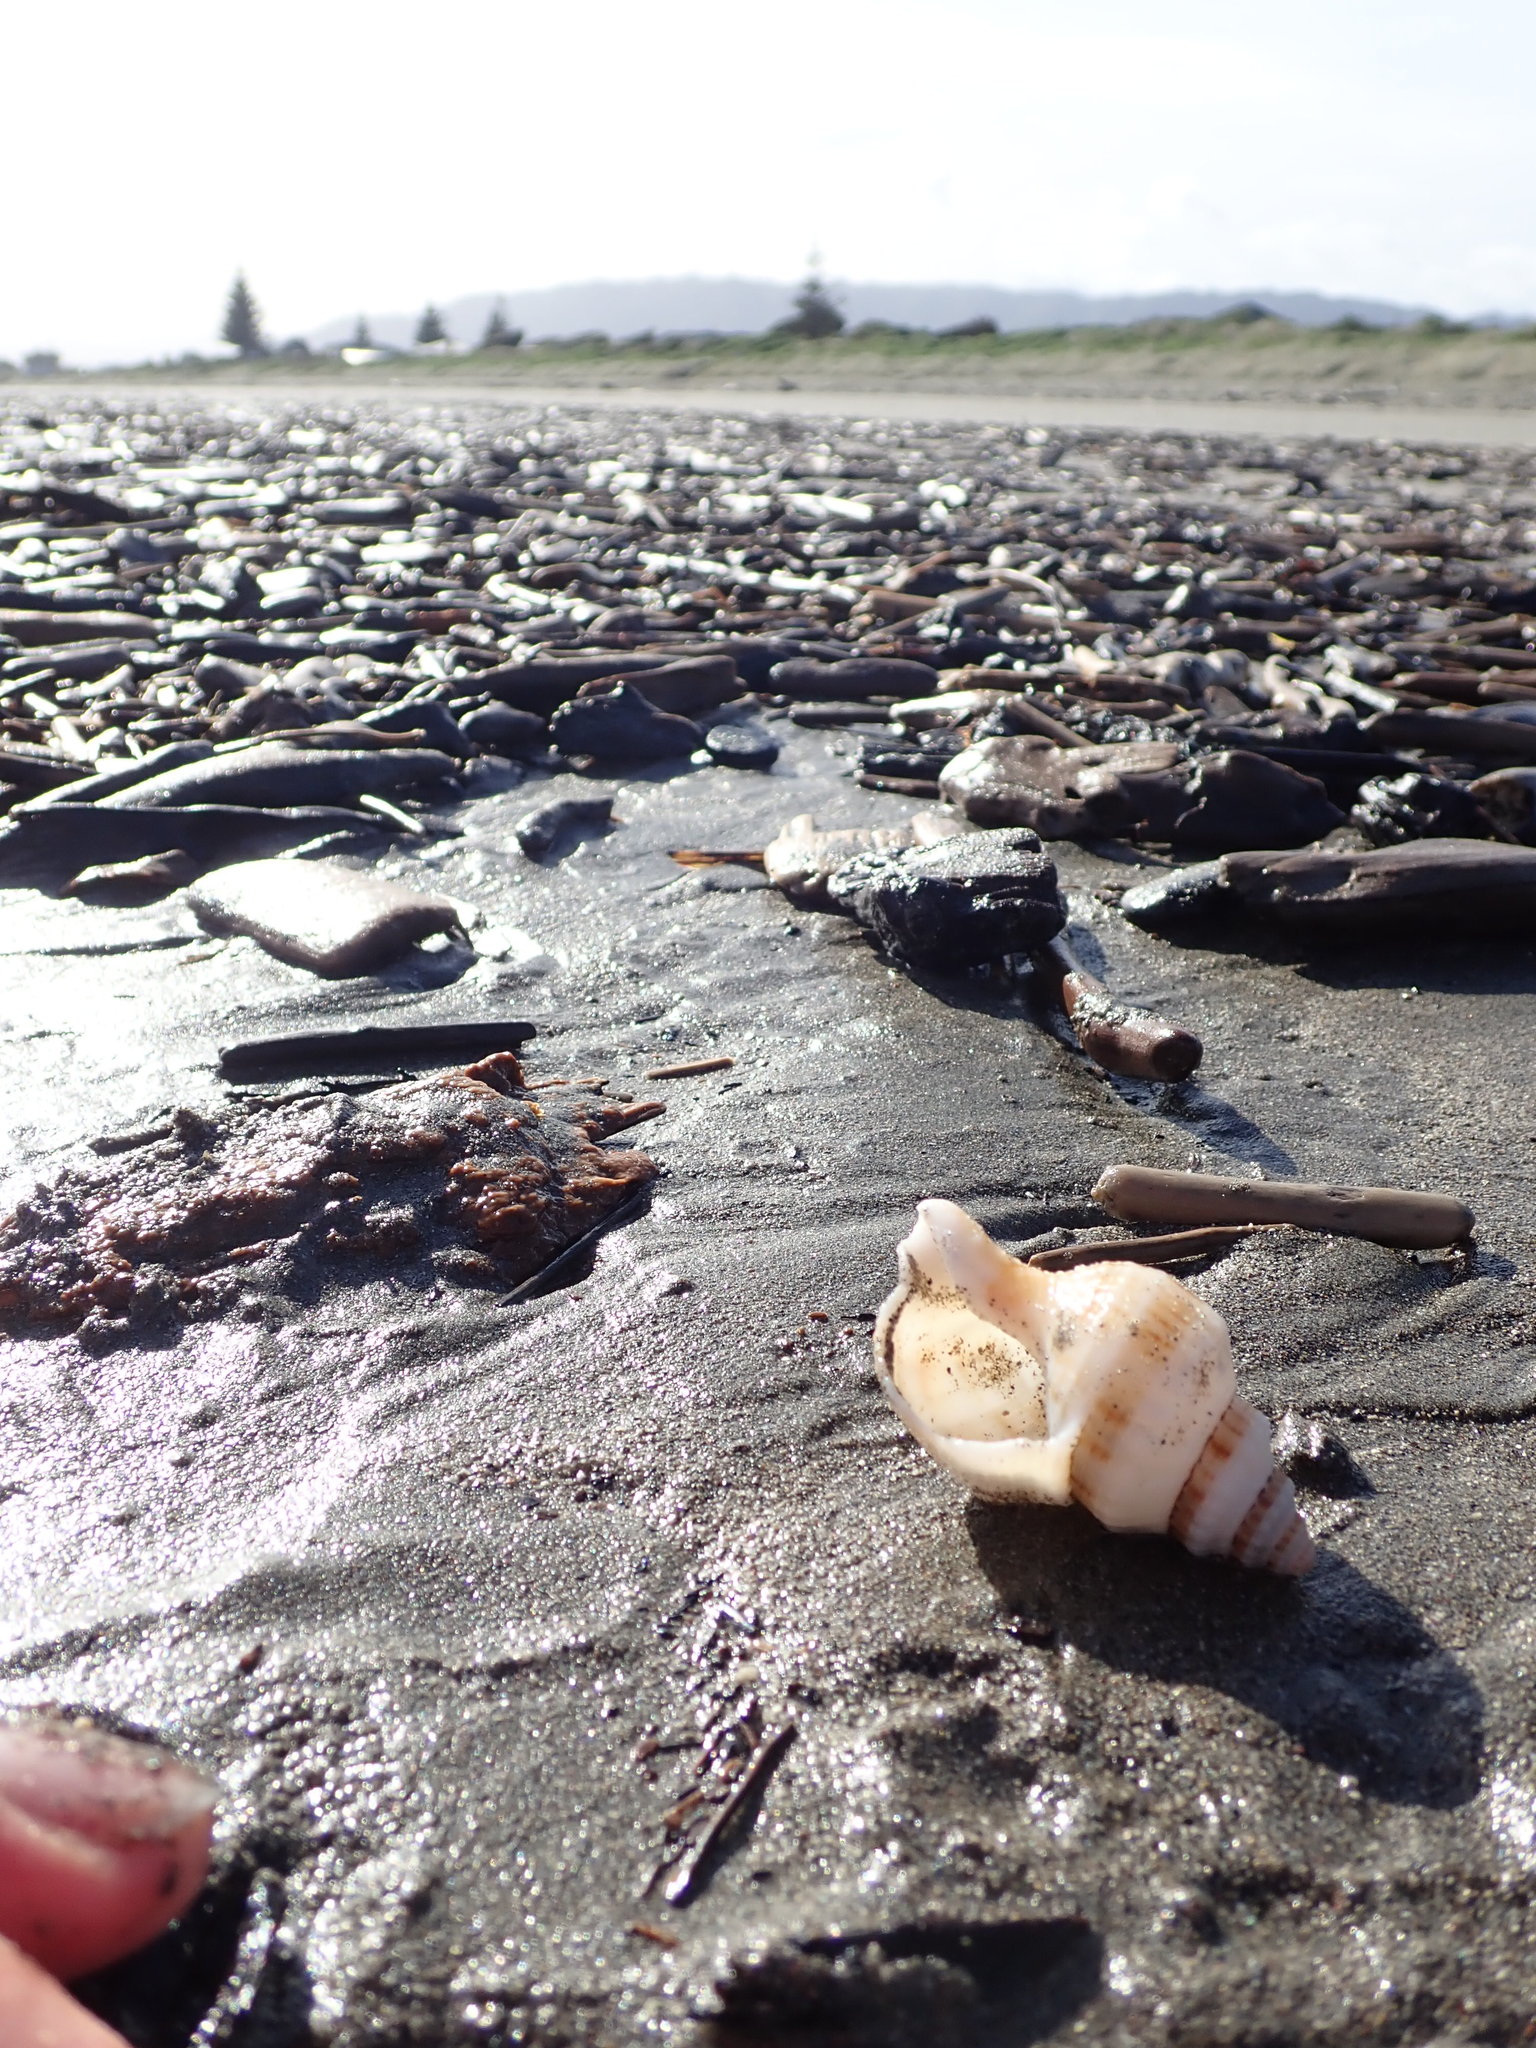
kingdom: Animalia
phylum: Mollusca
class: Gastropoda
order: Neogastropoda
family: Prosiphonidae
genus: Austrofusus
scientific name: Austrofusus glans
